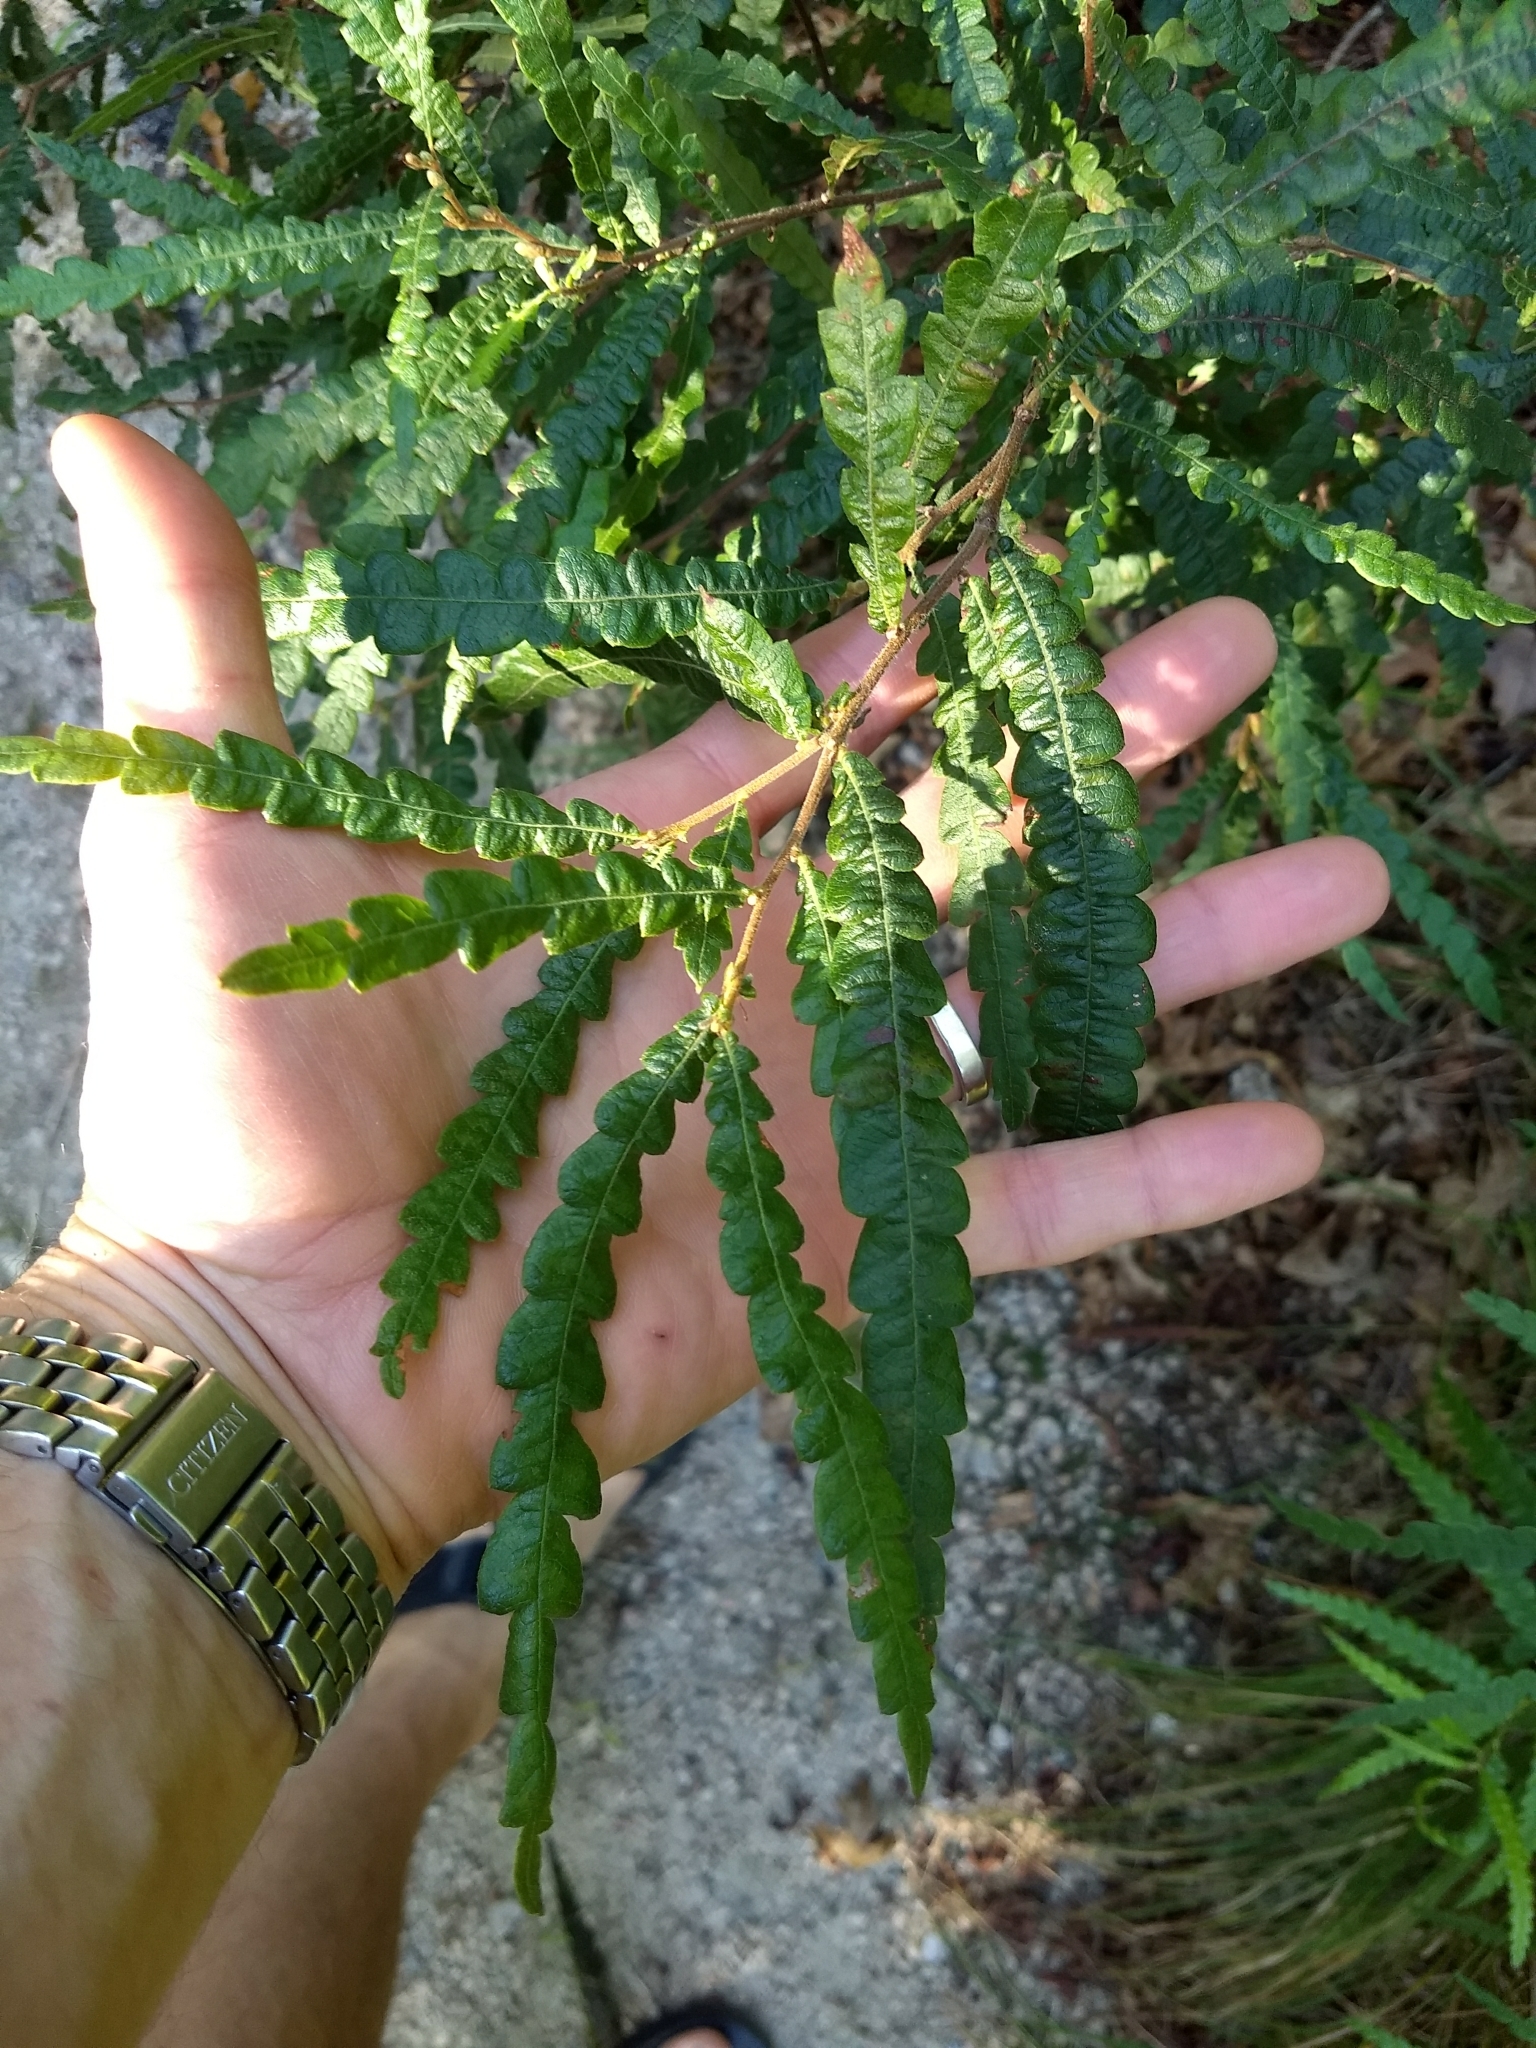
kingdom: Plantae
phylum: Tracheophyta
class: Magnoliopsida
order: Fagales
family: Myricaceae
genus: Comptonia
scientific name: Comptonia peregrina
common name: Sweet-fern
